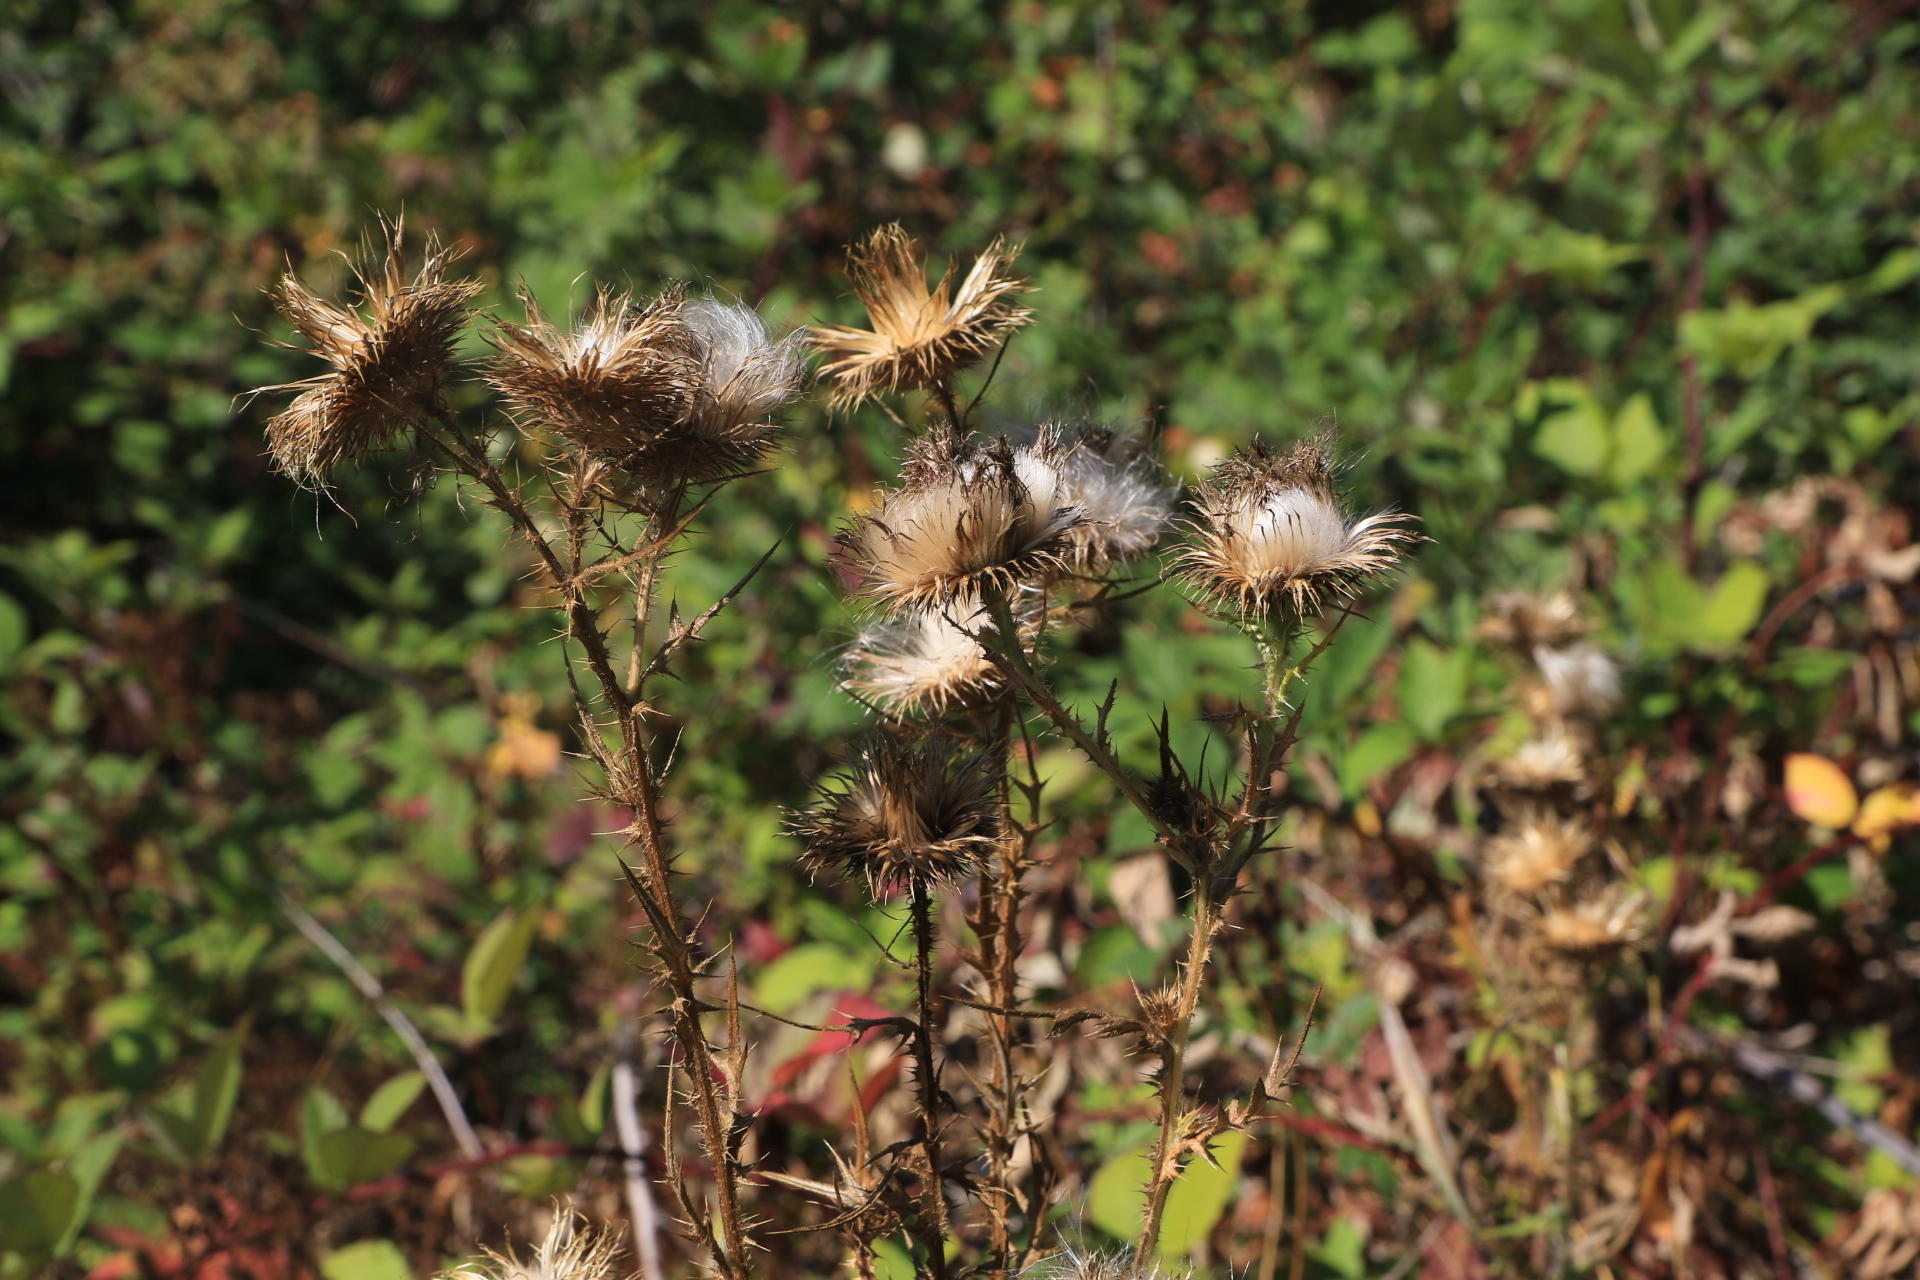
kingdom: Plantae
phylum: Tracheophyta
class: Magnoliopsida
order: Asterales
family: Asteraceae
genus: Cirsium
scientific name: Cirsium vulgare
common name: Bull thistle
